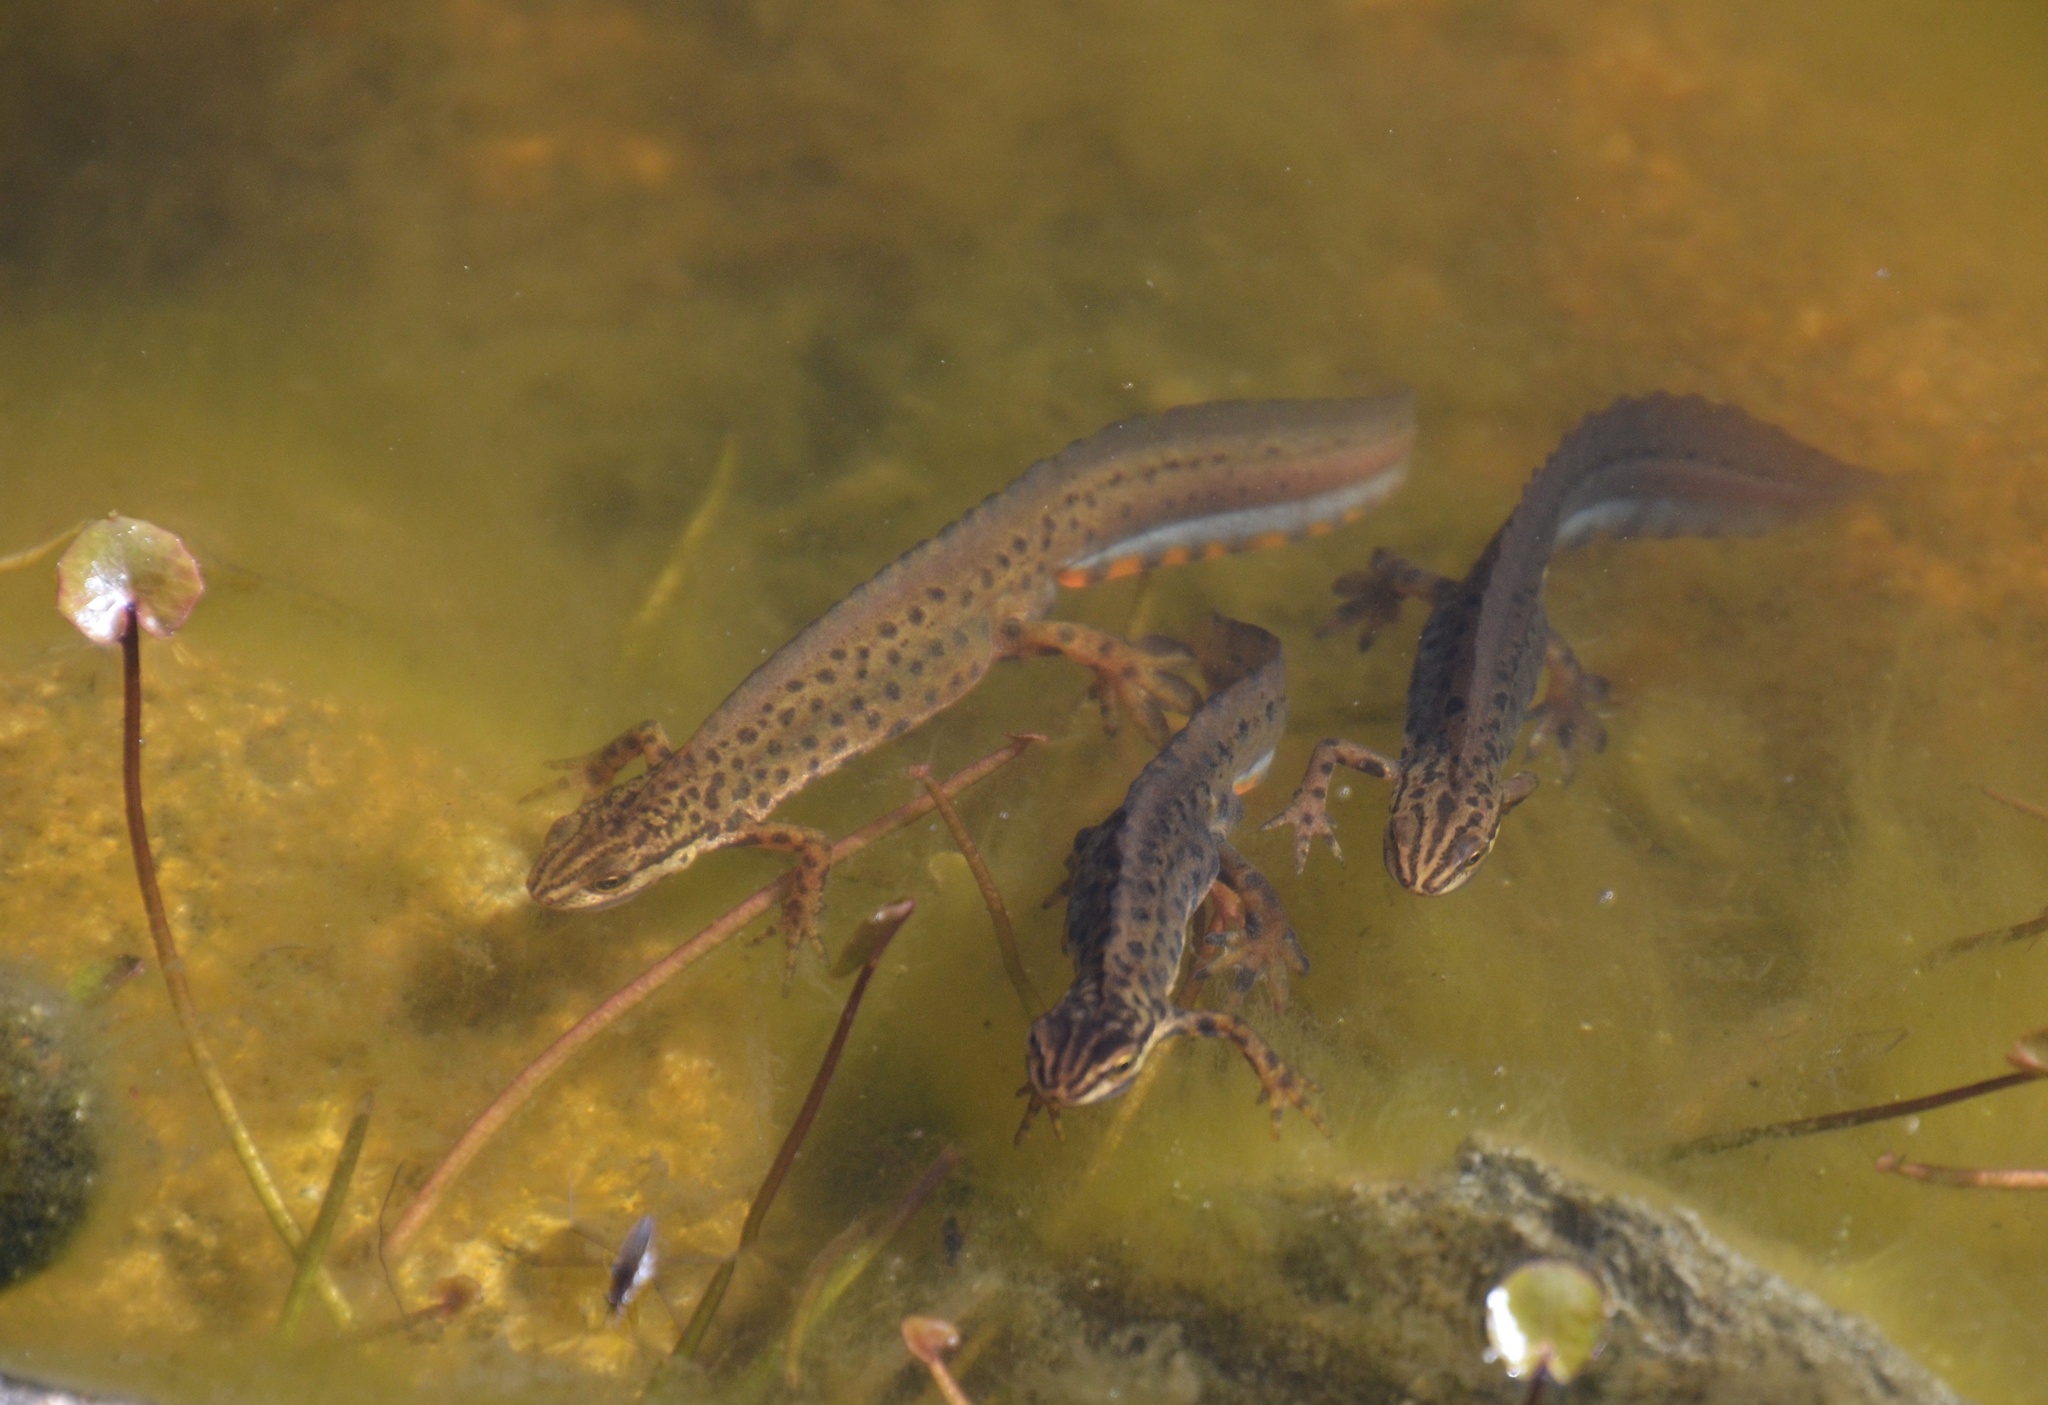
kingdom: Animalia
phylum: Chordata
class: Amphibia
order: Caudata
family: Salamandridae
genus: Lissotriton
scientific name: Lissotriton vulgaris
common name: Smooth newt
